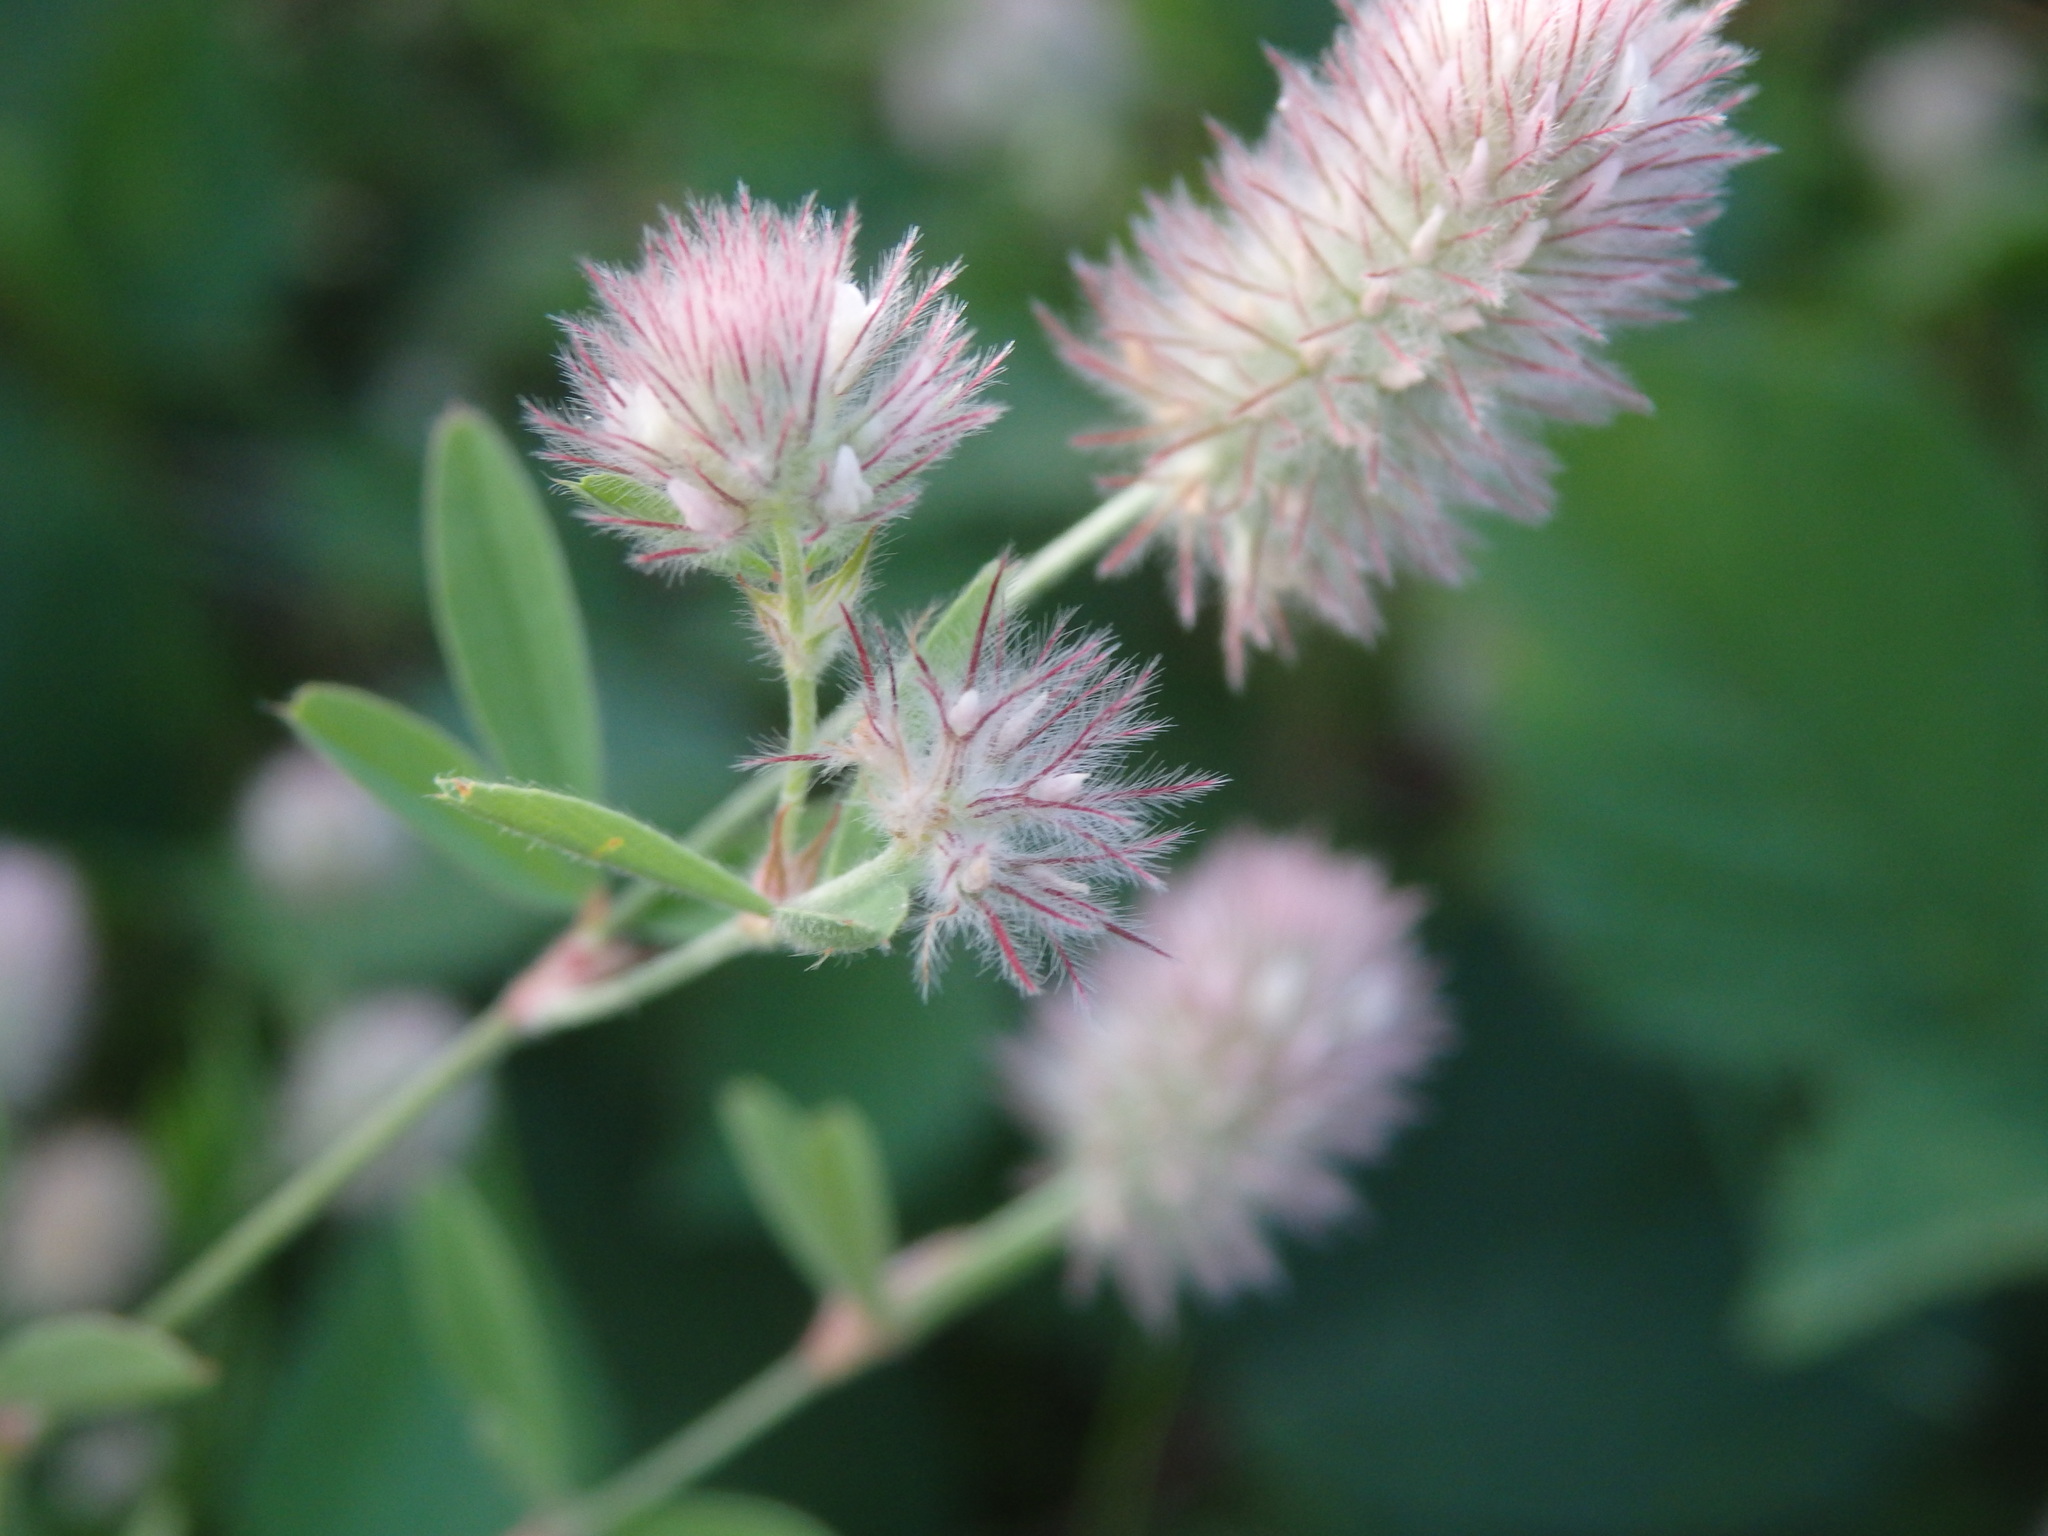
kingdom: Plantae
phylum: Tracheophyta
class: Magnoliopsida
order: Fabales
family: Fabaceae
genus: Trifolium
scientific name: Trifolium arvense
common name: Hare's-foot clover
